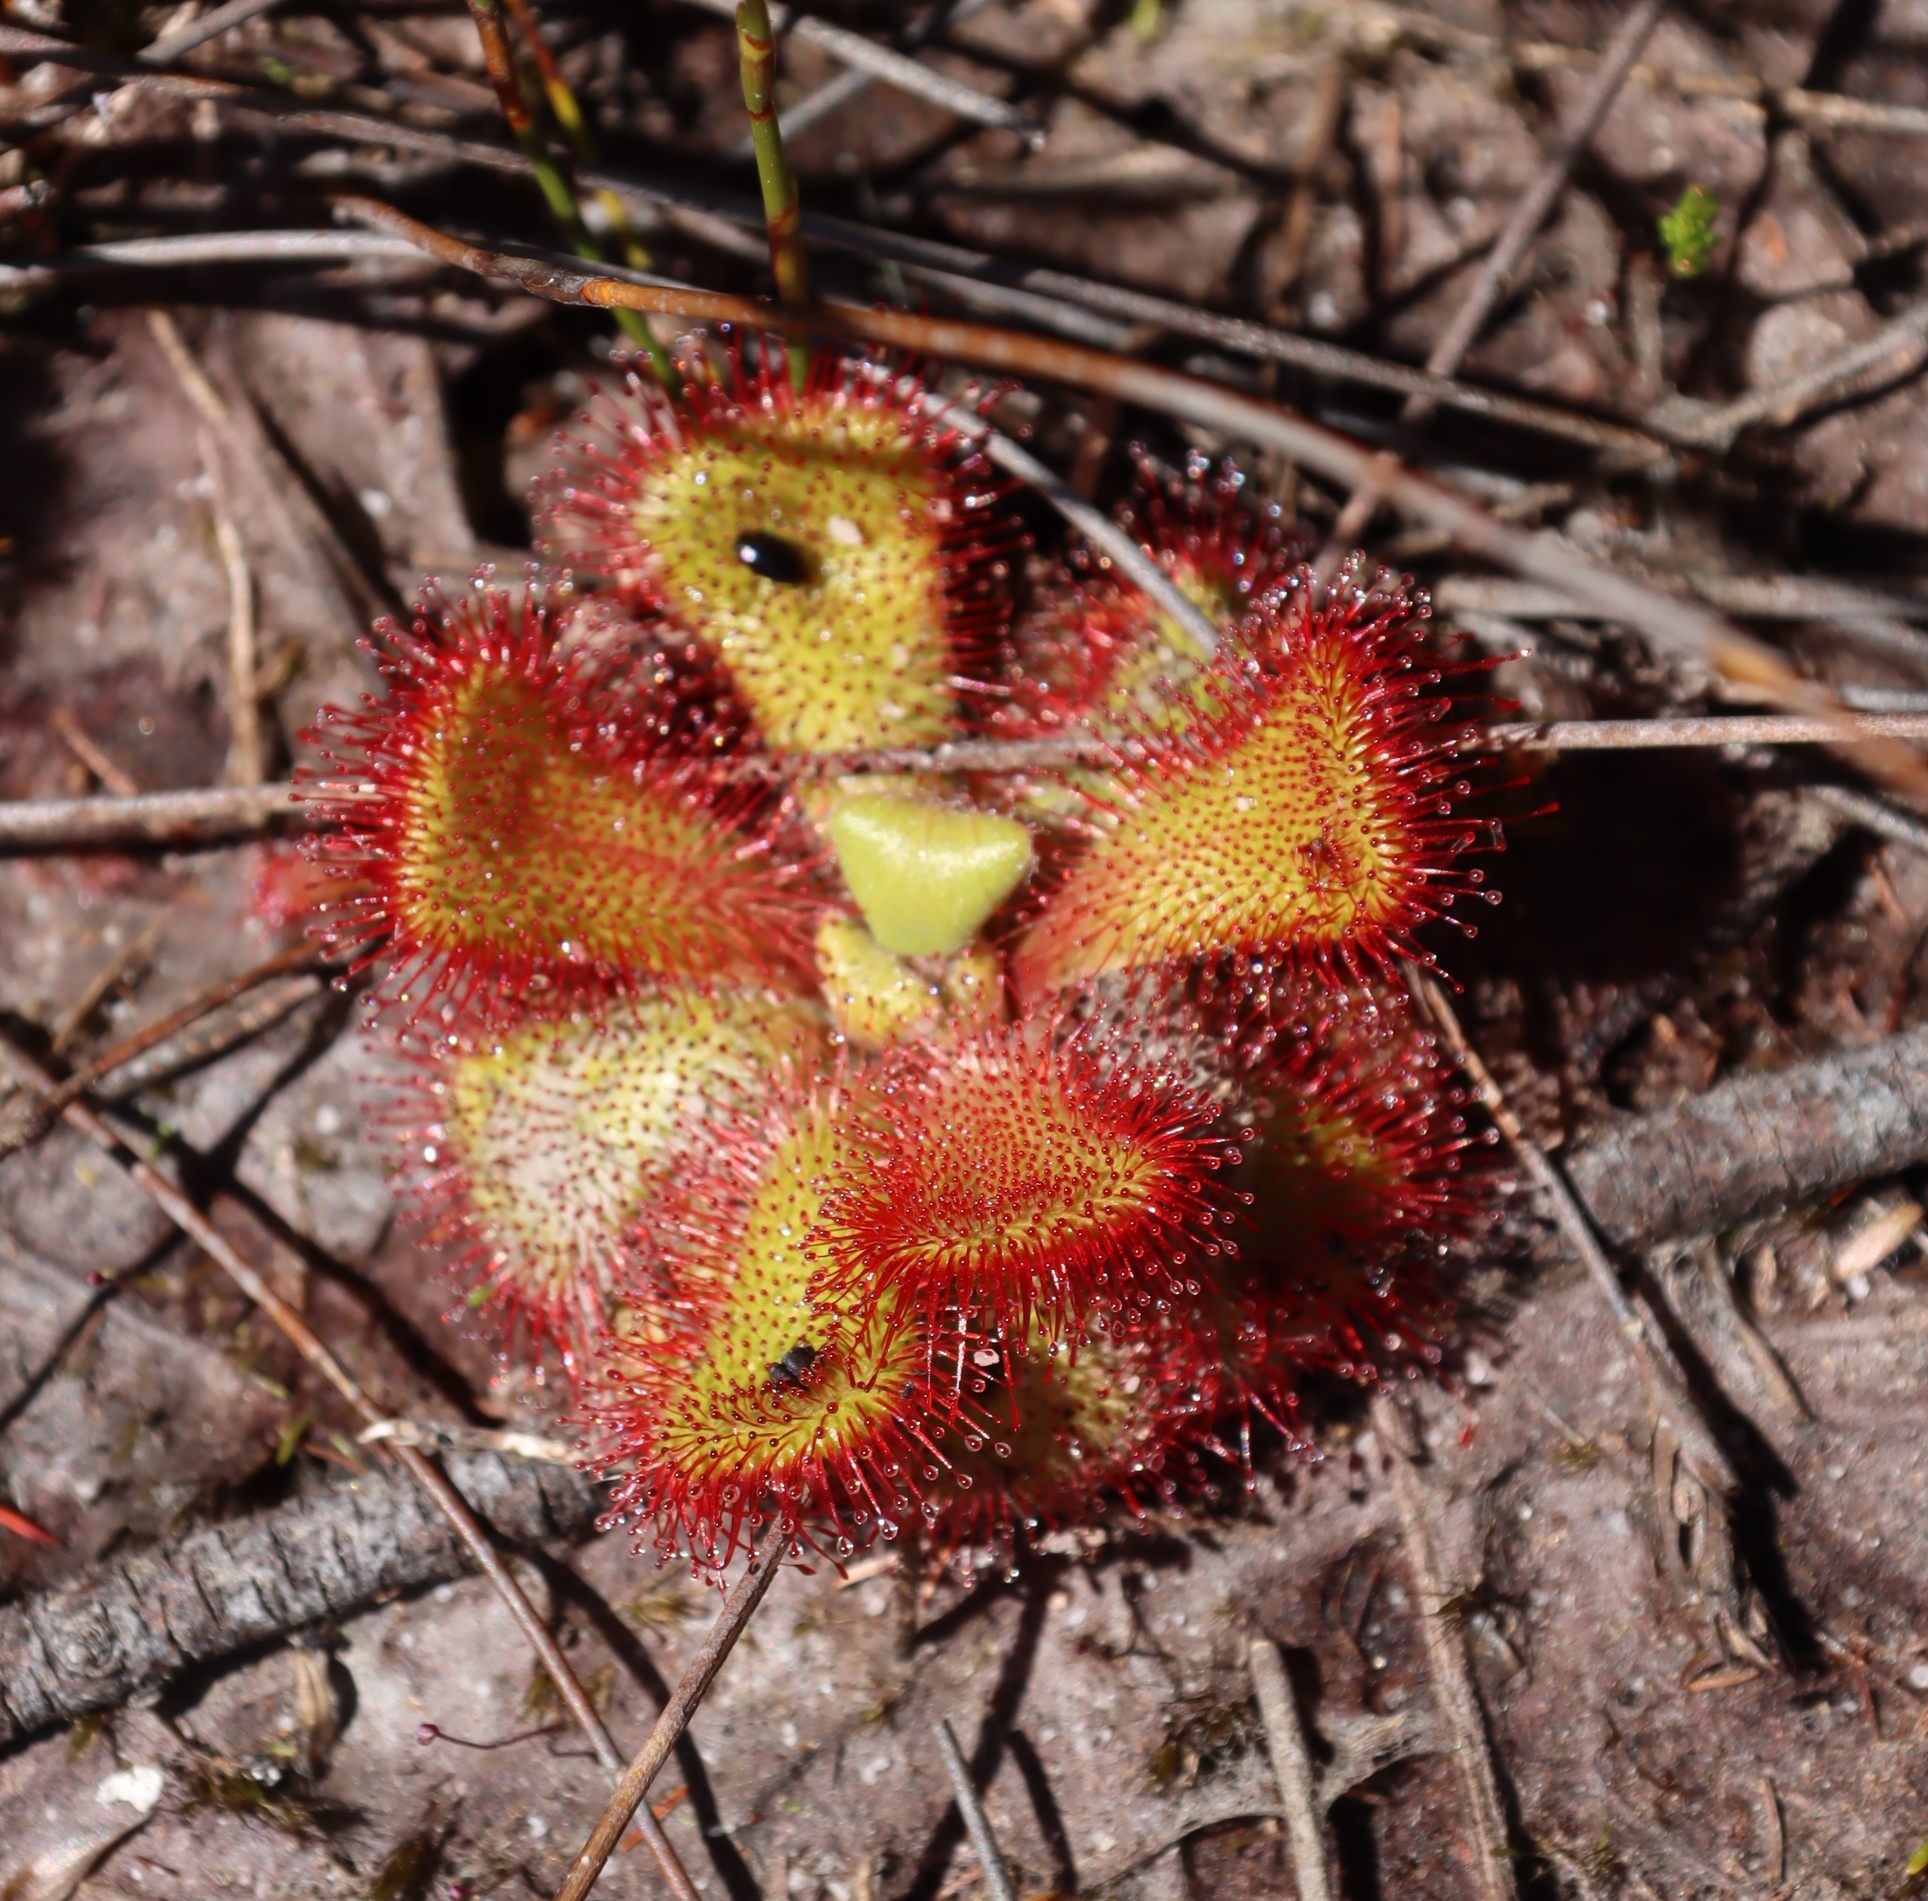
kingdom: Plantae
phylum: Tracheophyta
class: Magnoliopsida
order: Caryophyllales
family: Droseraceae
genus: Drosera
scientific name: Drosera cuneifolia
